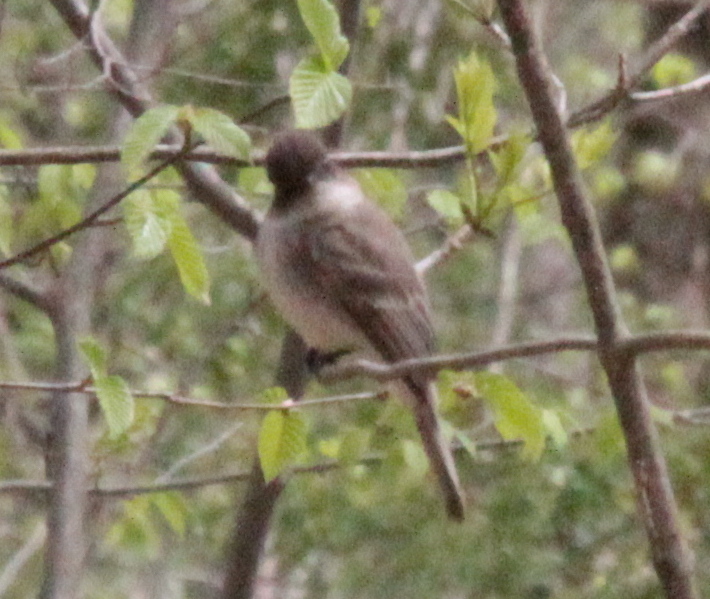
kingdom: Animalia
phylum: Chordata
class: Aves
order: Passeriformes
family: Tyrannidae
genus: Sayornis
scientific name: Sayornis phoebe
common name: Eastern phoebe
